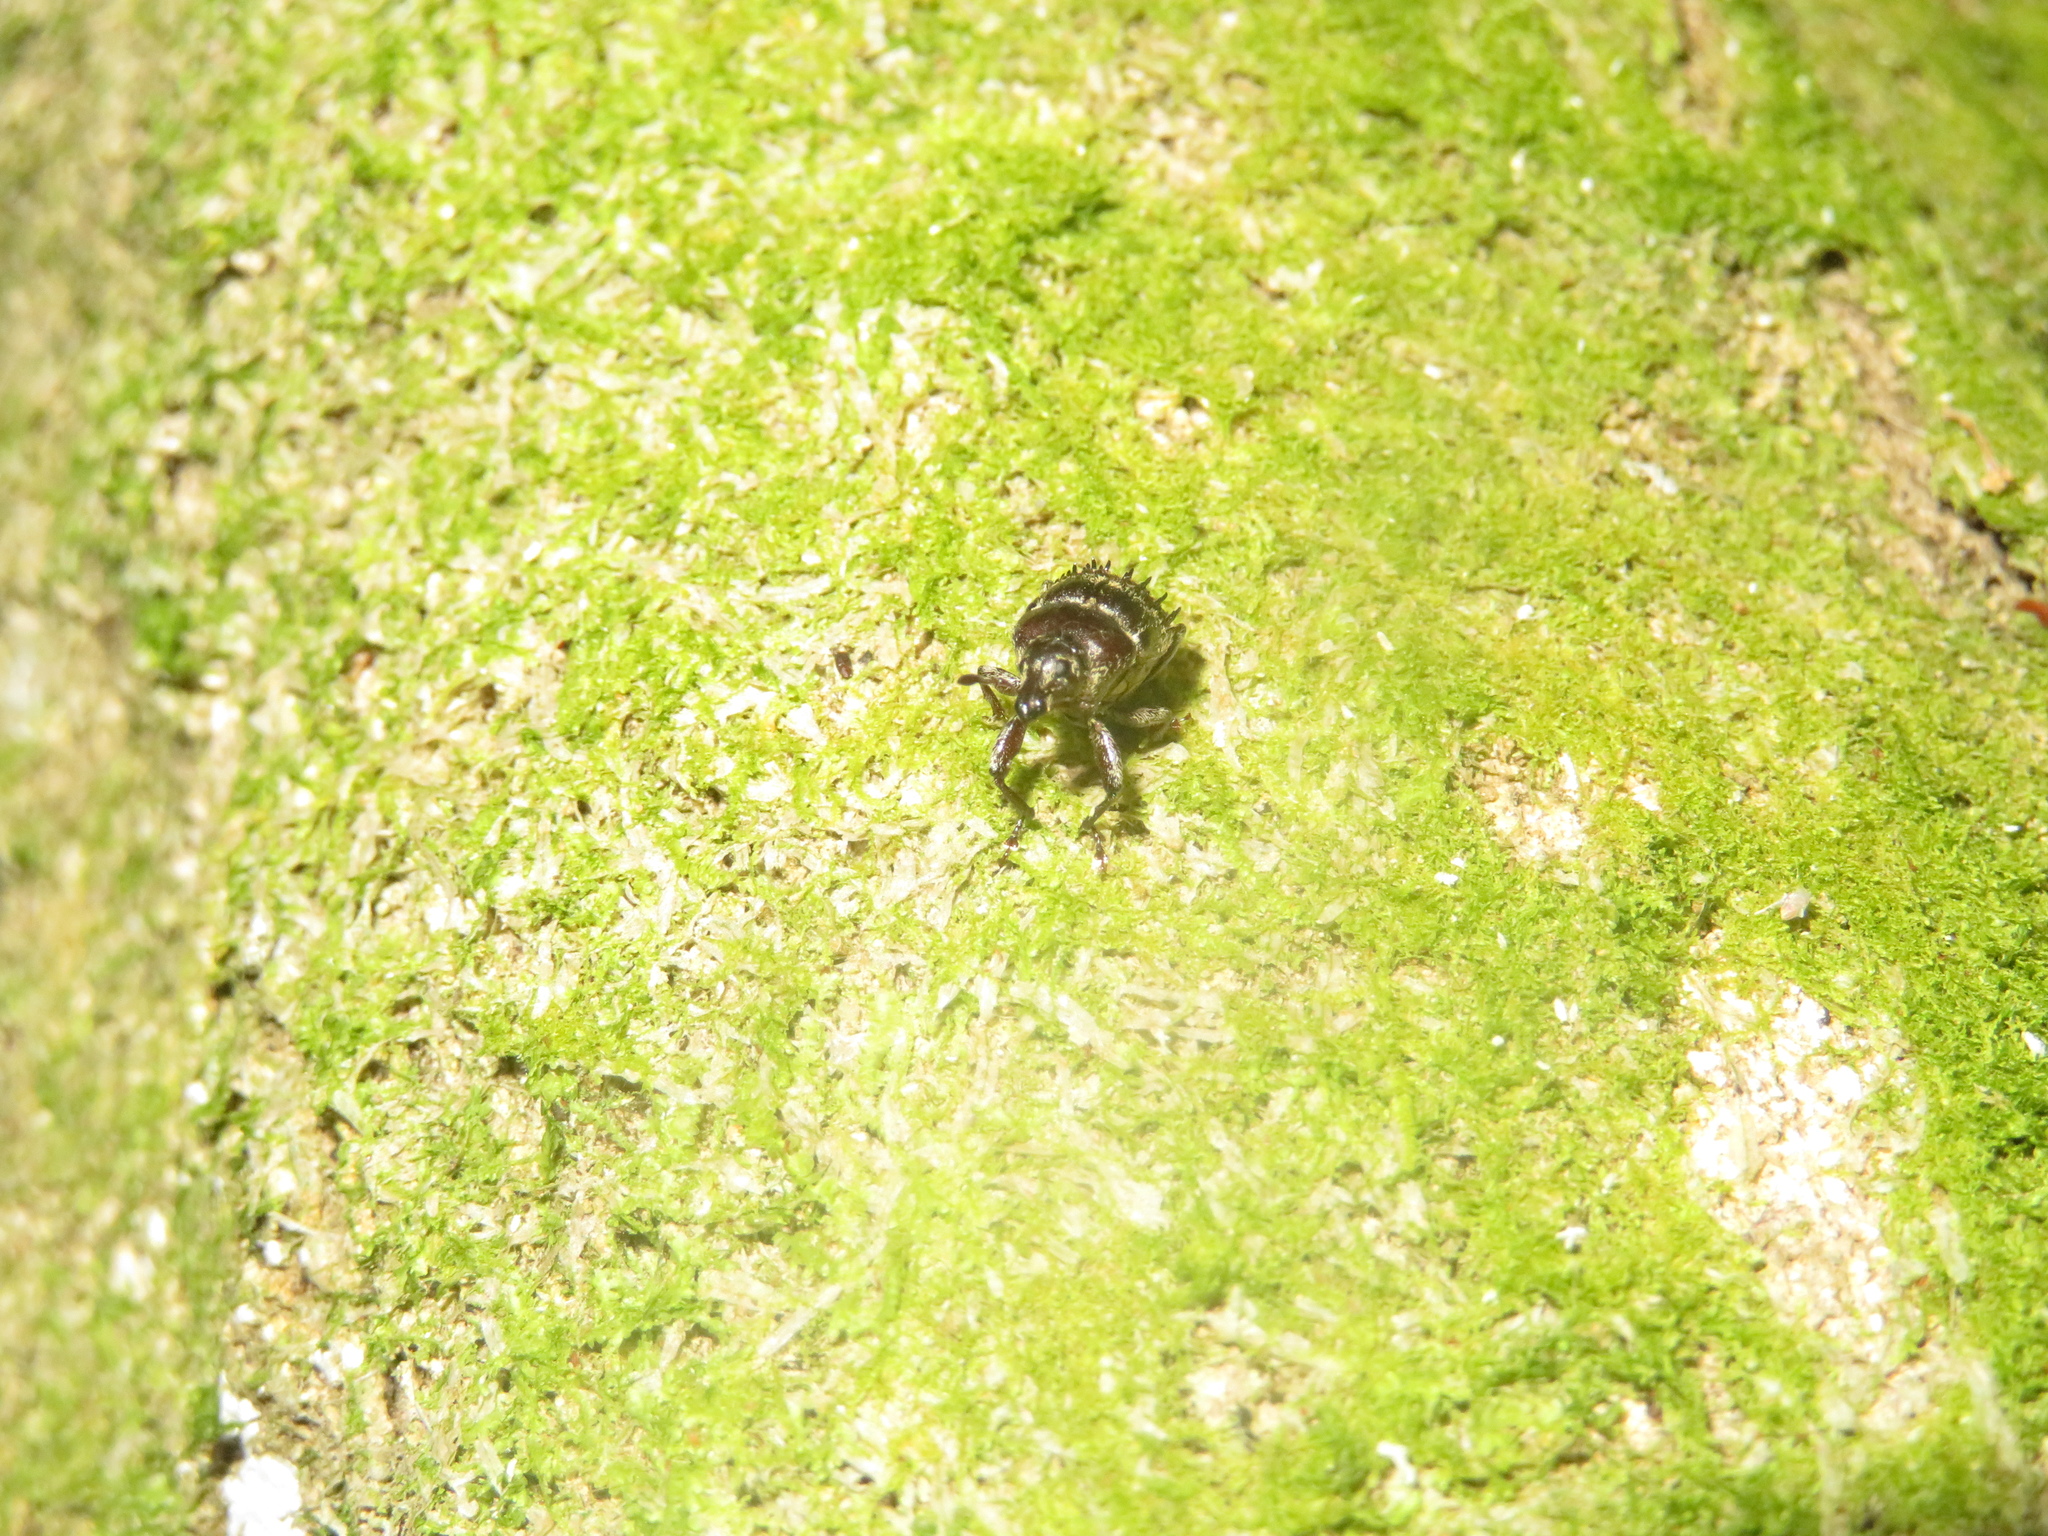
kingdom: Animalia
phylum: Arthropoda
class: Insecta
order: Coleoptera
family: Curculionidae
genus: Psepholax
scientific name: Psepholax coronatus
